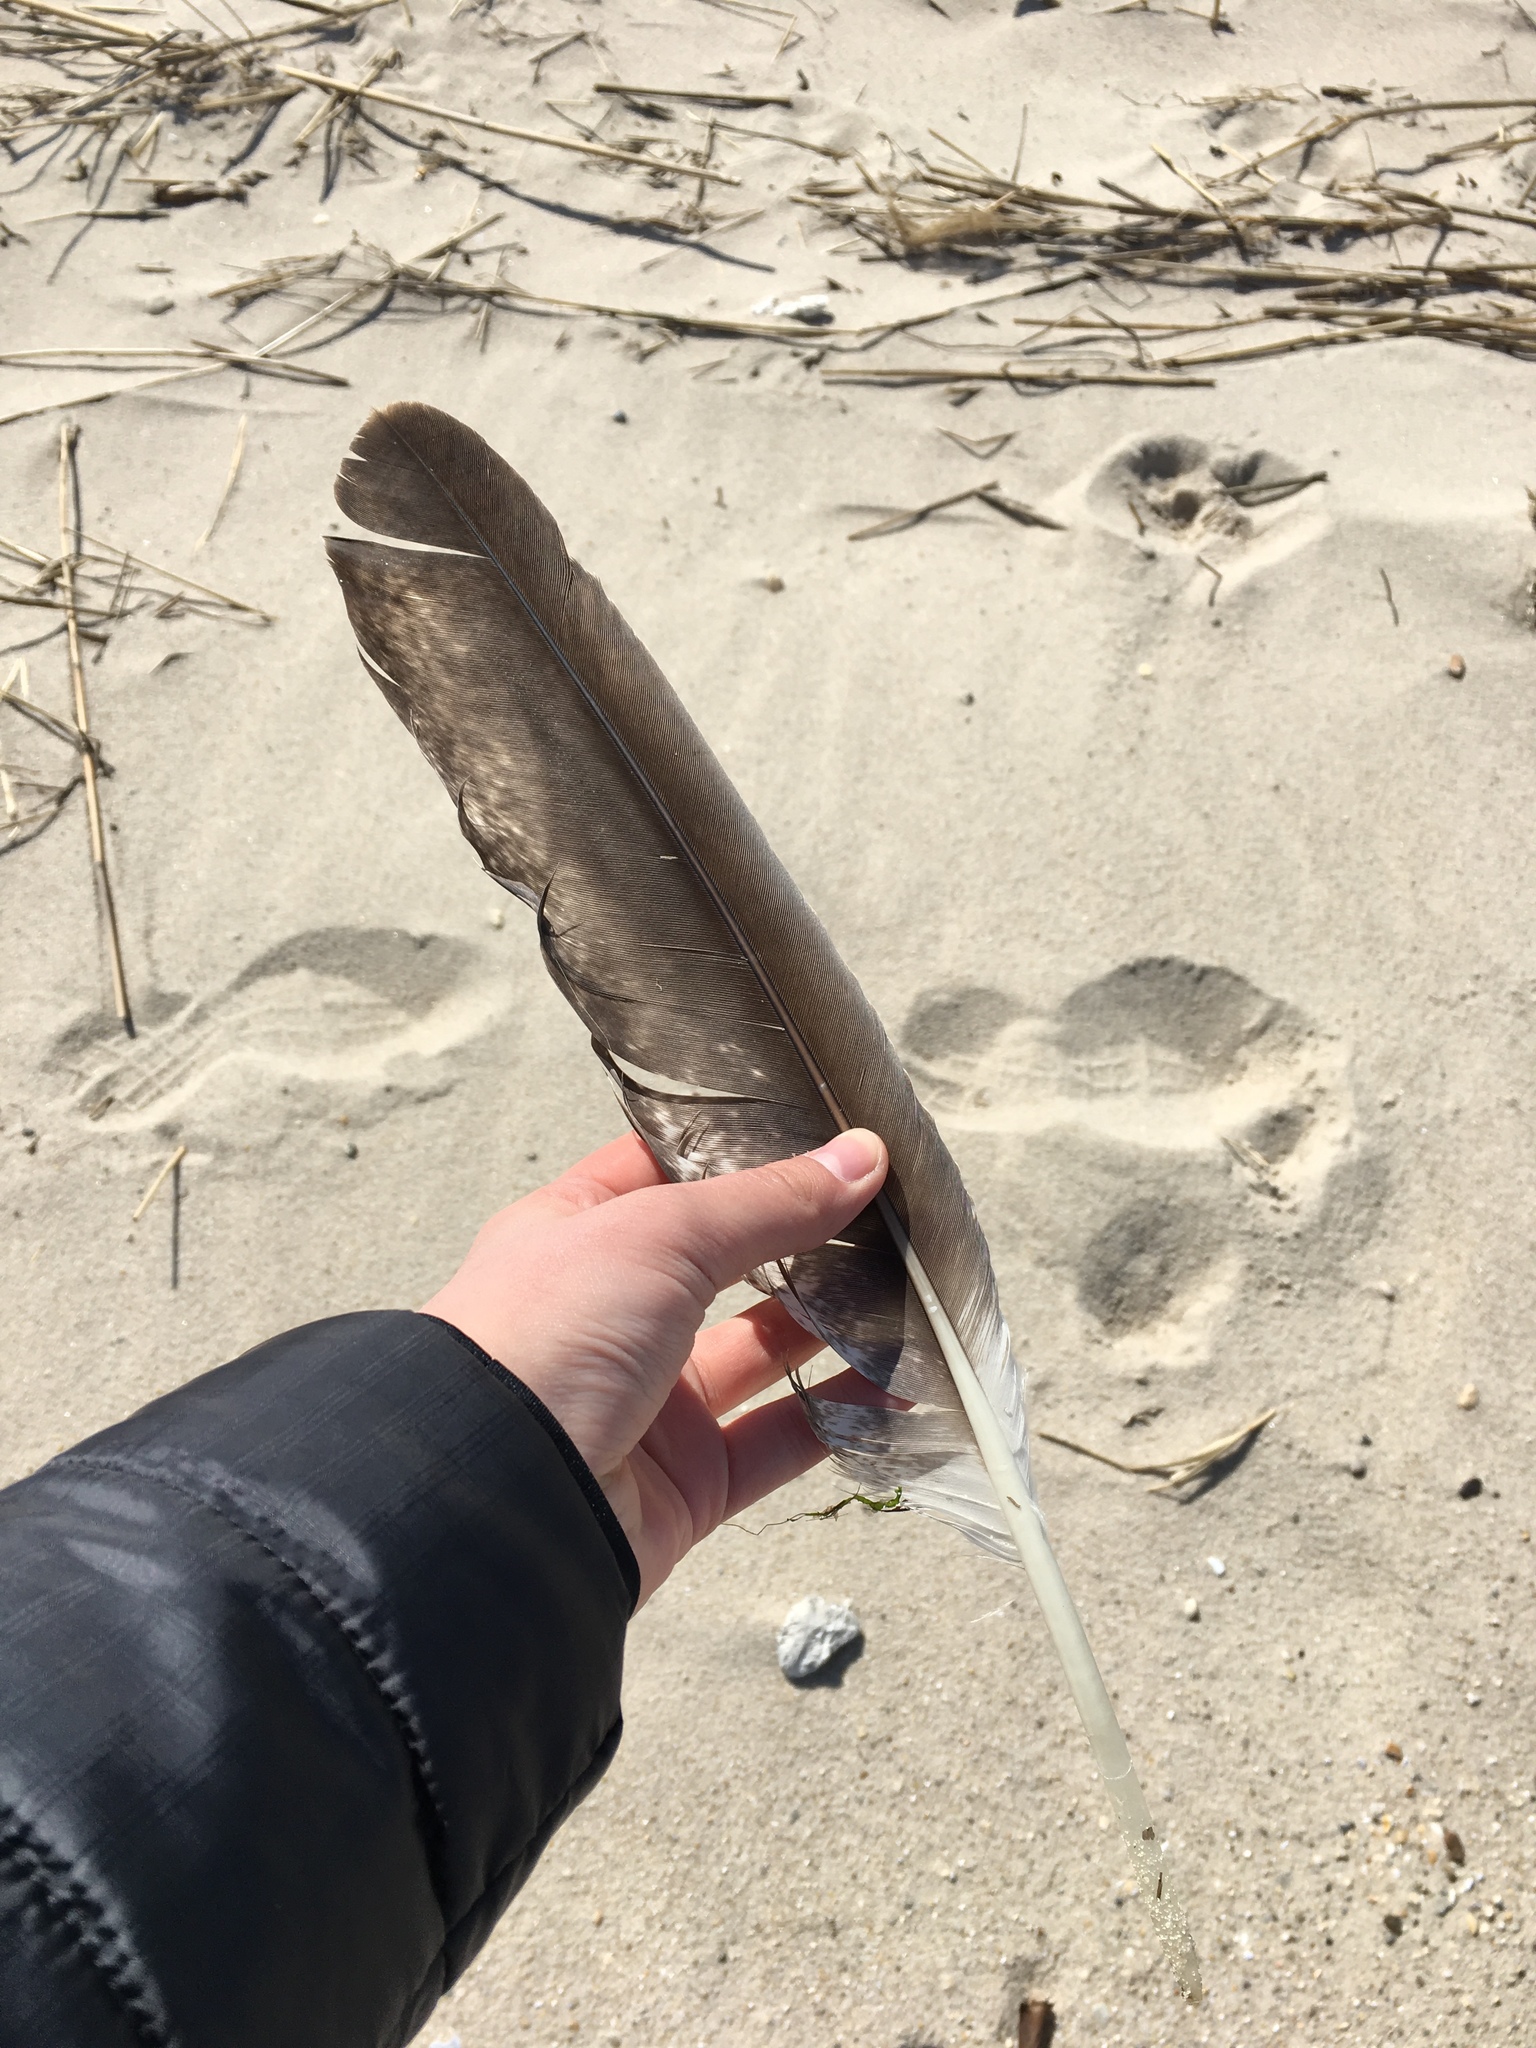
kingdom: Animalia
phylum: Chordata
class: Aves
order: Accipitriformes
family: Accipitridae
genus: Haliaeetus
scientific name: Haliaeetus leucocephalus
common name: Bald eagle
